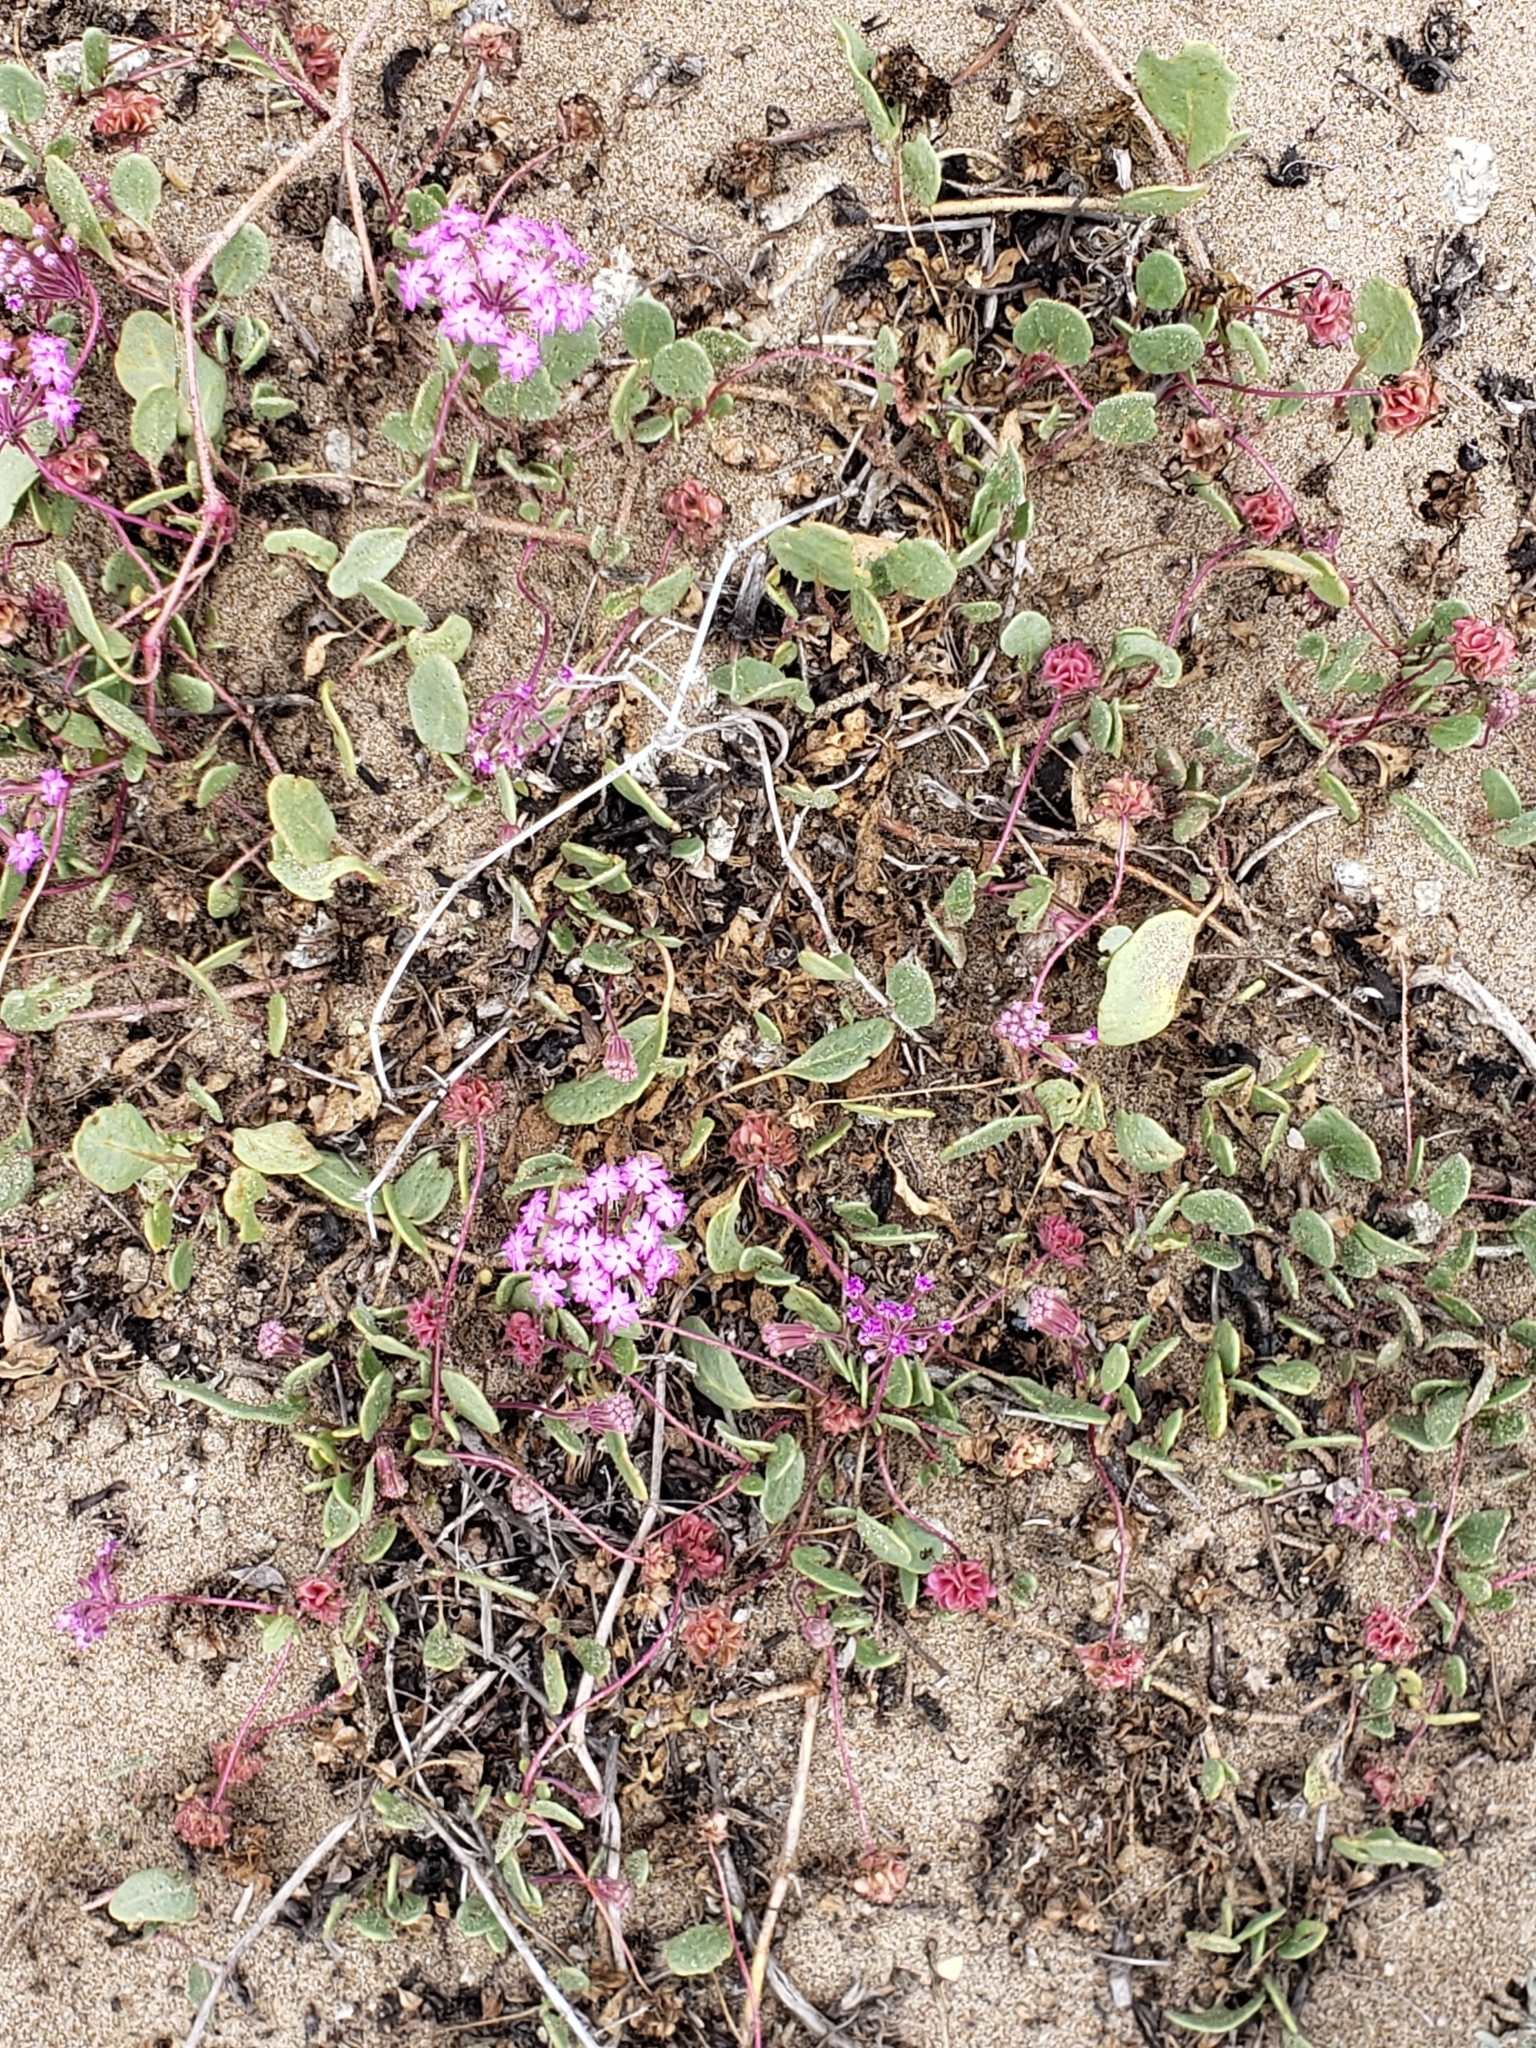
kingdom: Plantae
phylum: Tracheophyta
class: Magnoliopsida
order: Caryophyllales
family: Nyctaginaceae
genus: Abronia
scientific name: Abronia umbellata
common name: Sand-verbena
